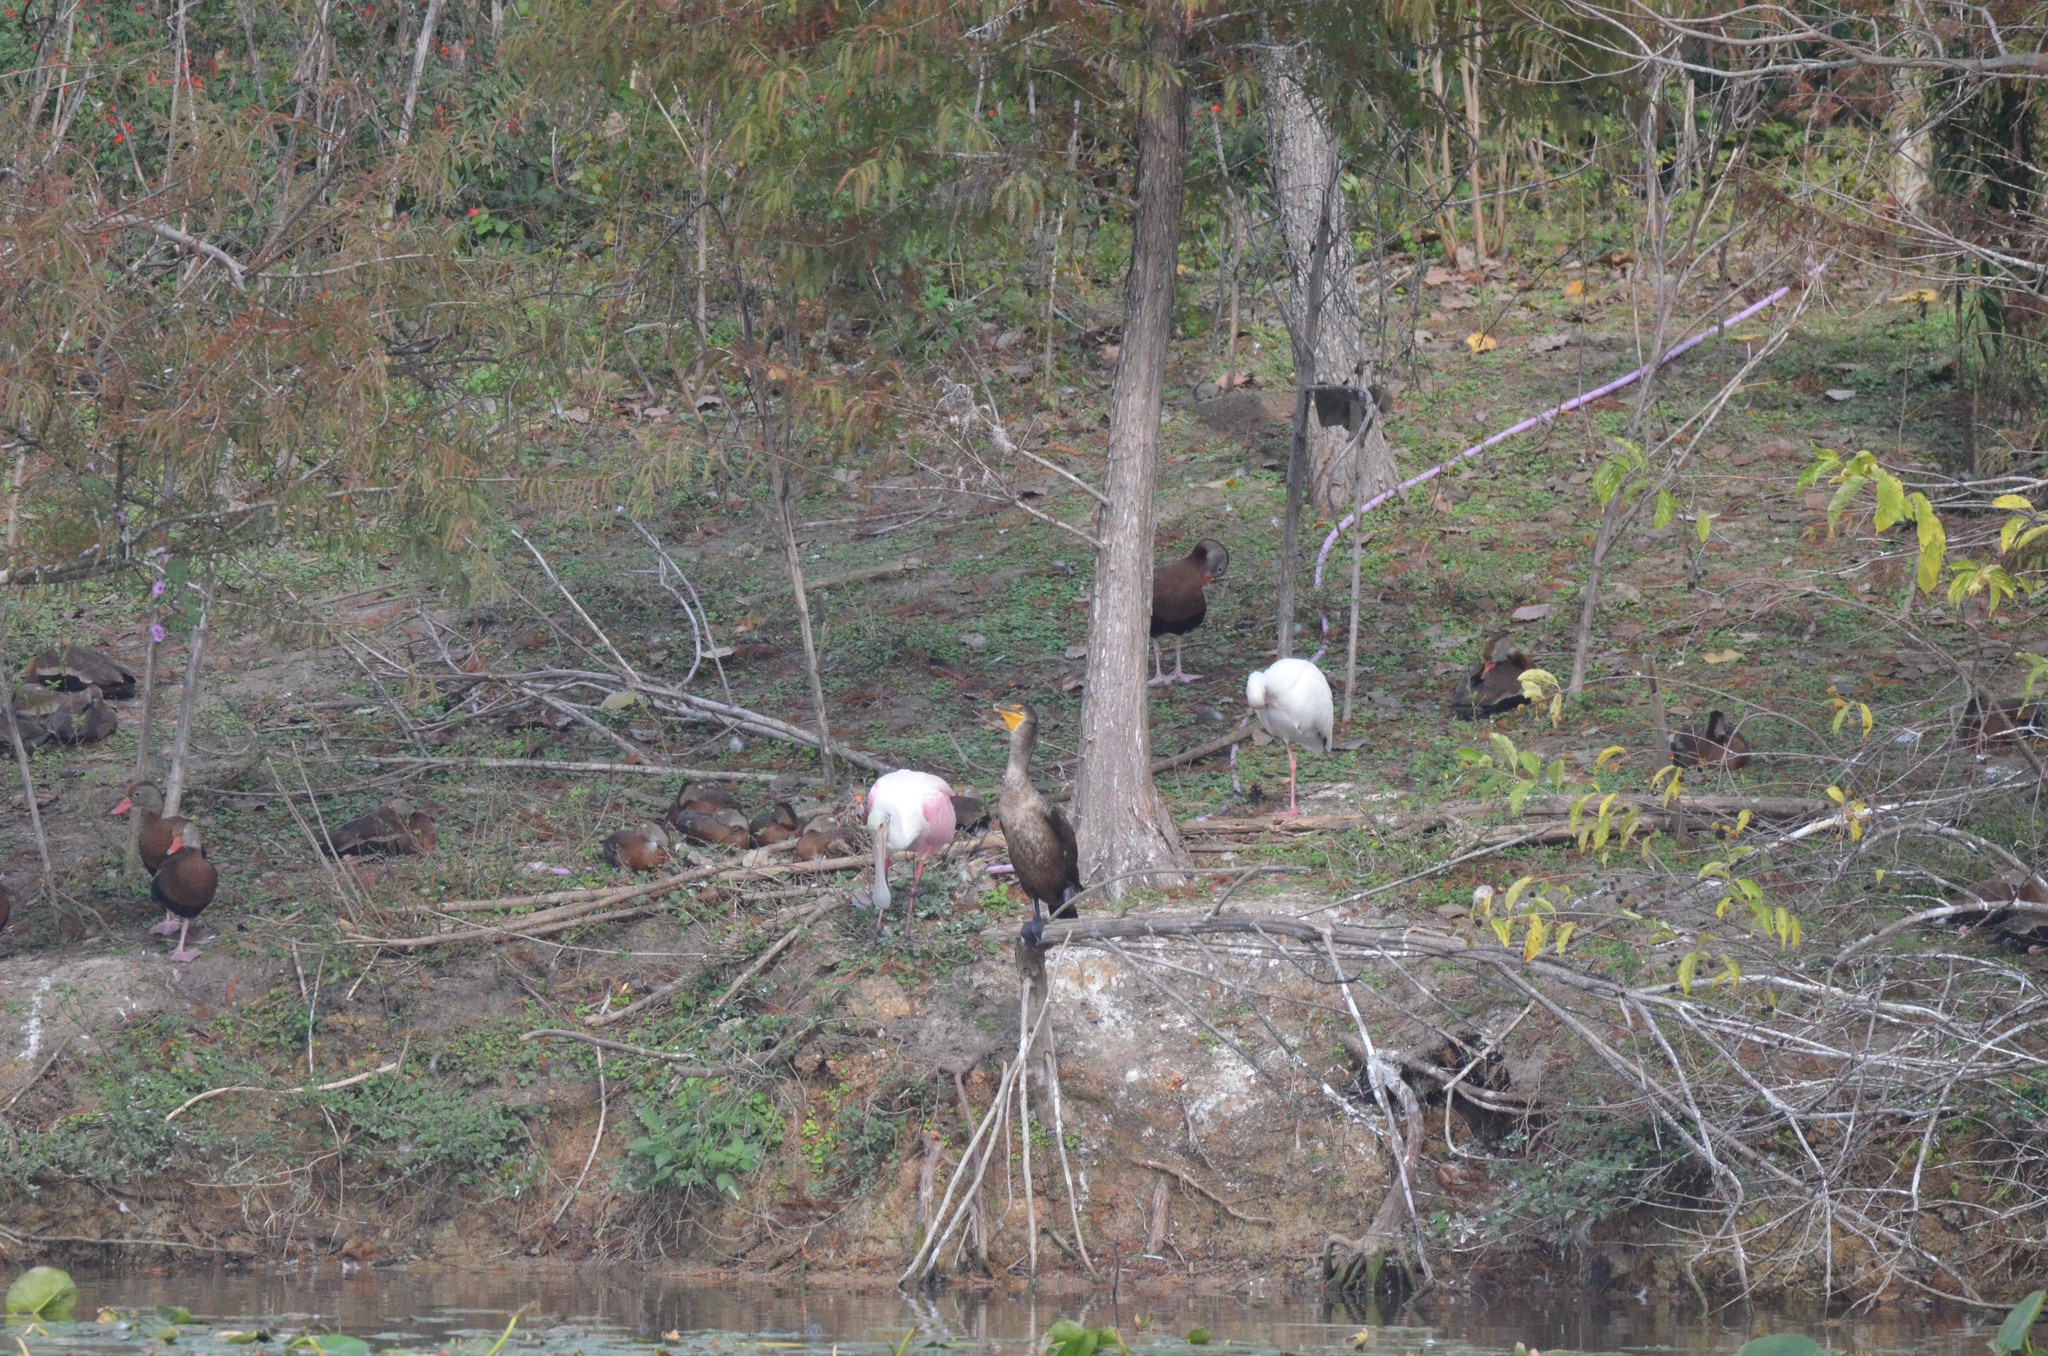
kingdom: Animalia
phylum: Chordata
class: Aves
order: Pelecaniformes
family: Threskiornithidae
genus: Platalea
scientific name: Platalea ajaja
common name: Roseate spoonbill
